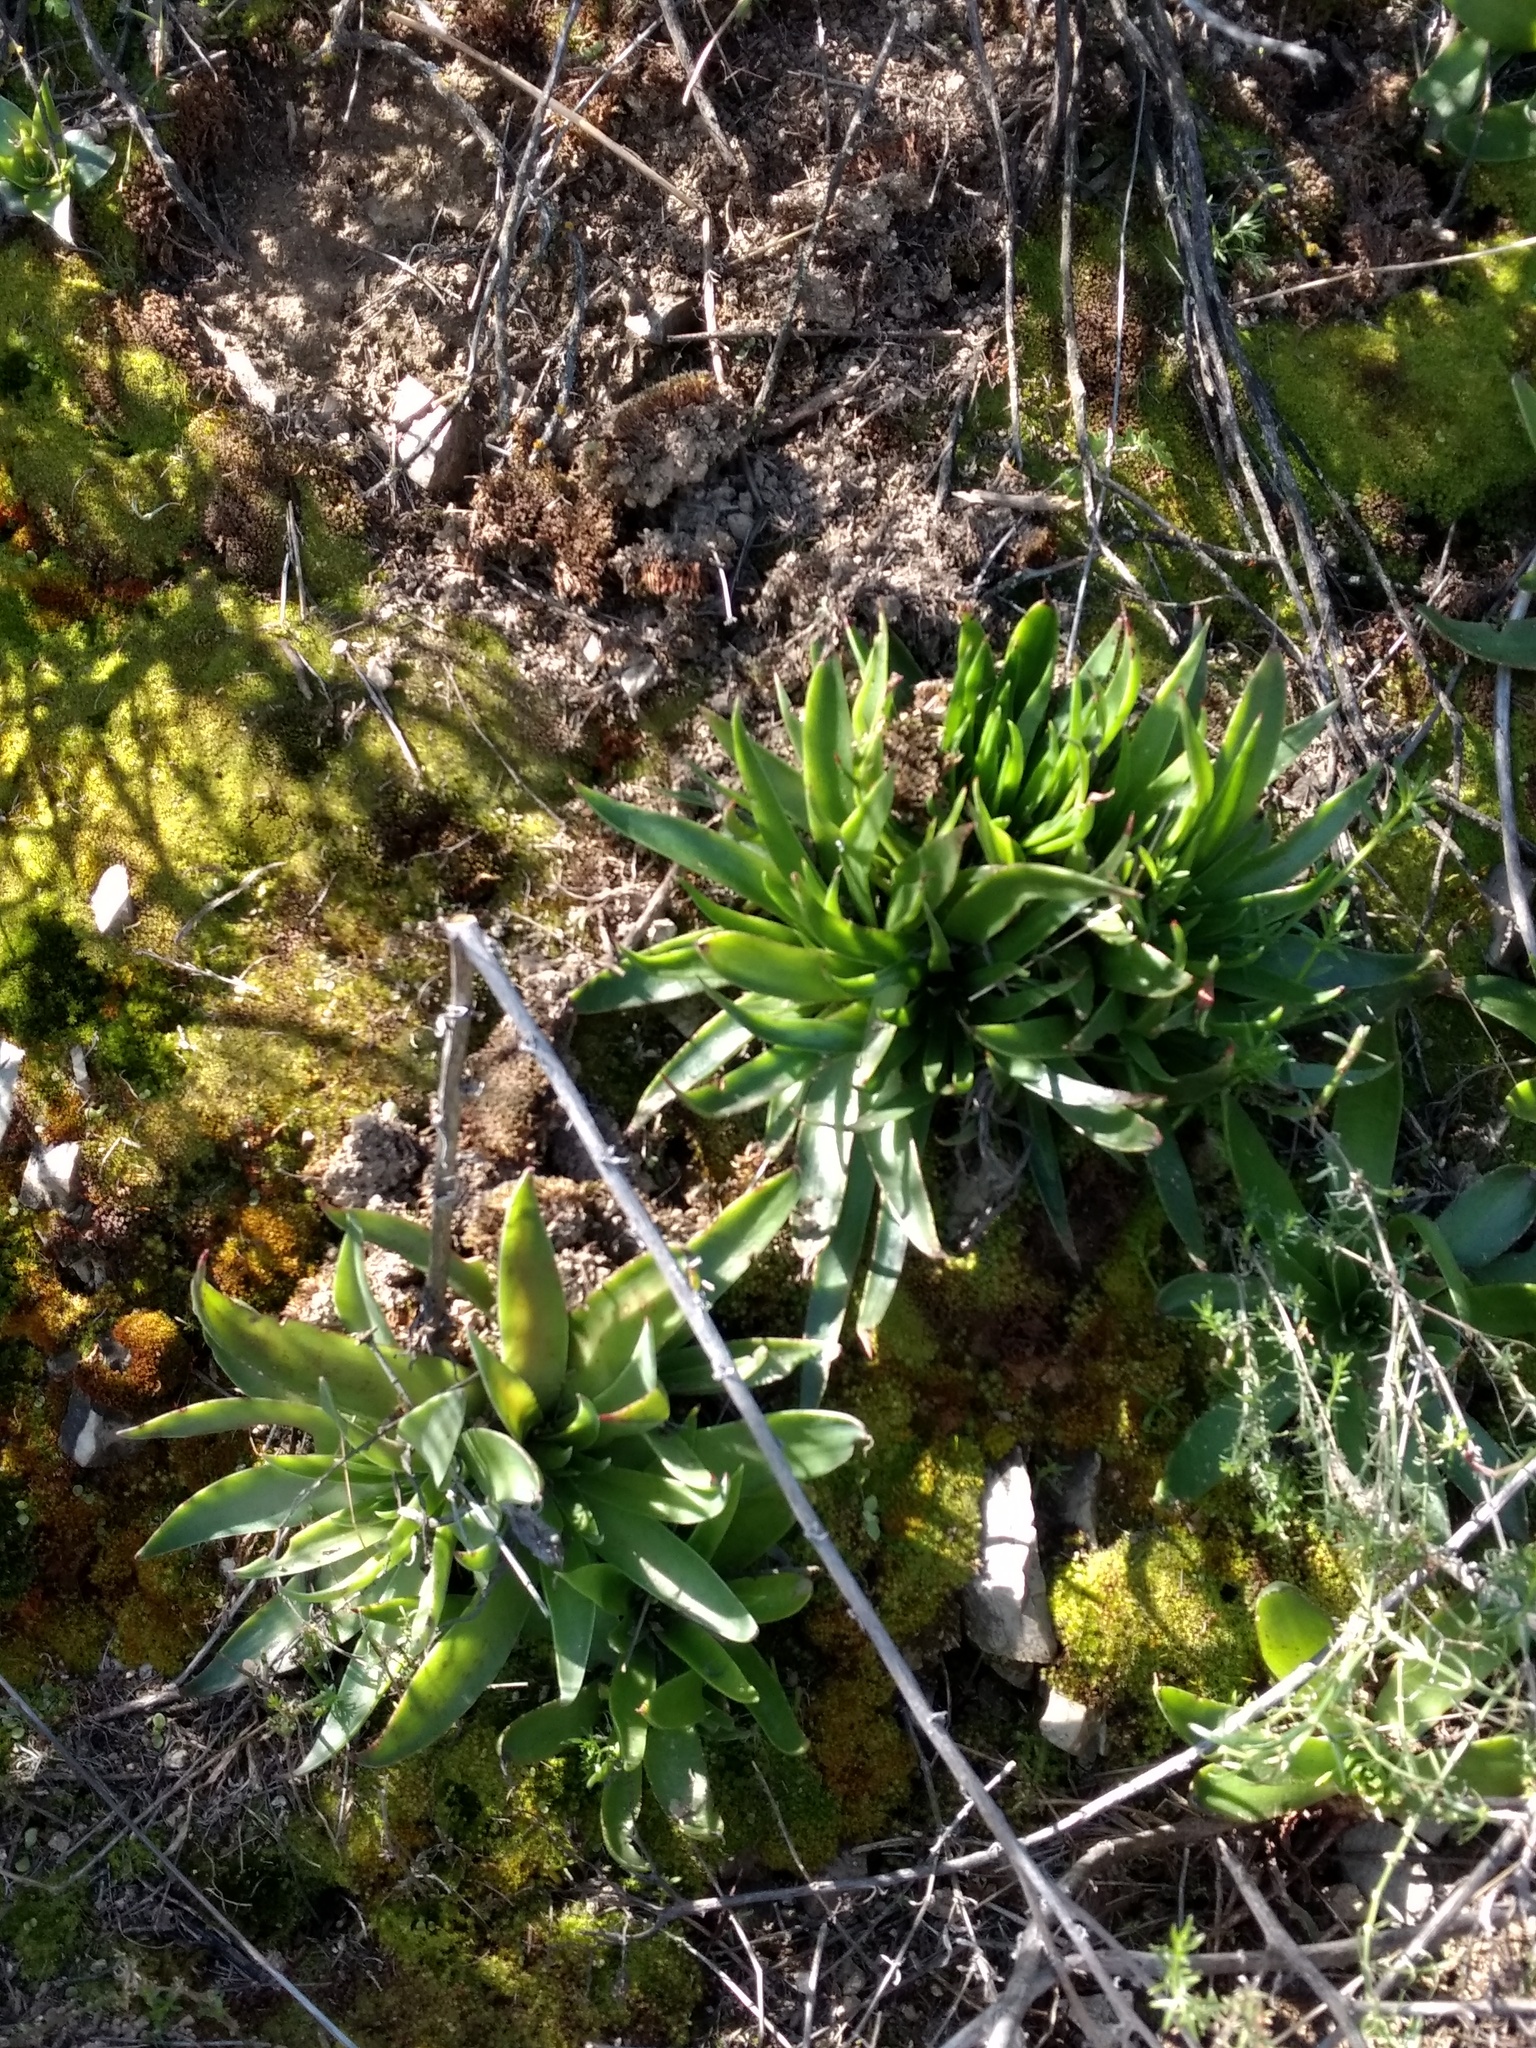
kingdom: Plantae
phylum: Tracheophyta
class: Magnoliopsida
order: Saxifragales
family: Crassulaceae
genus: Dudleya
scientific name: Dudleya lanceolata
